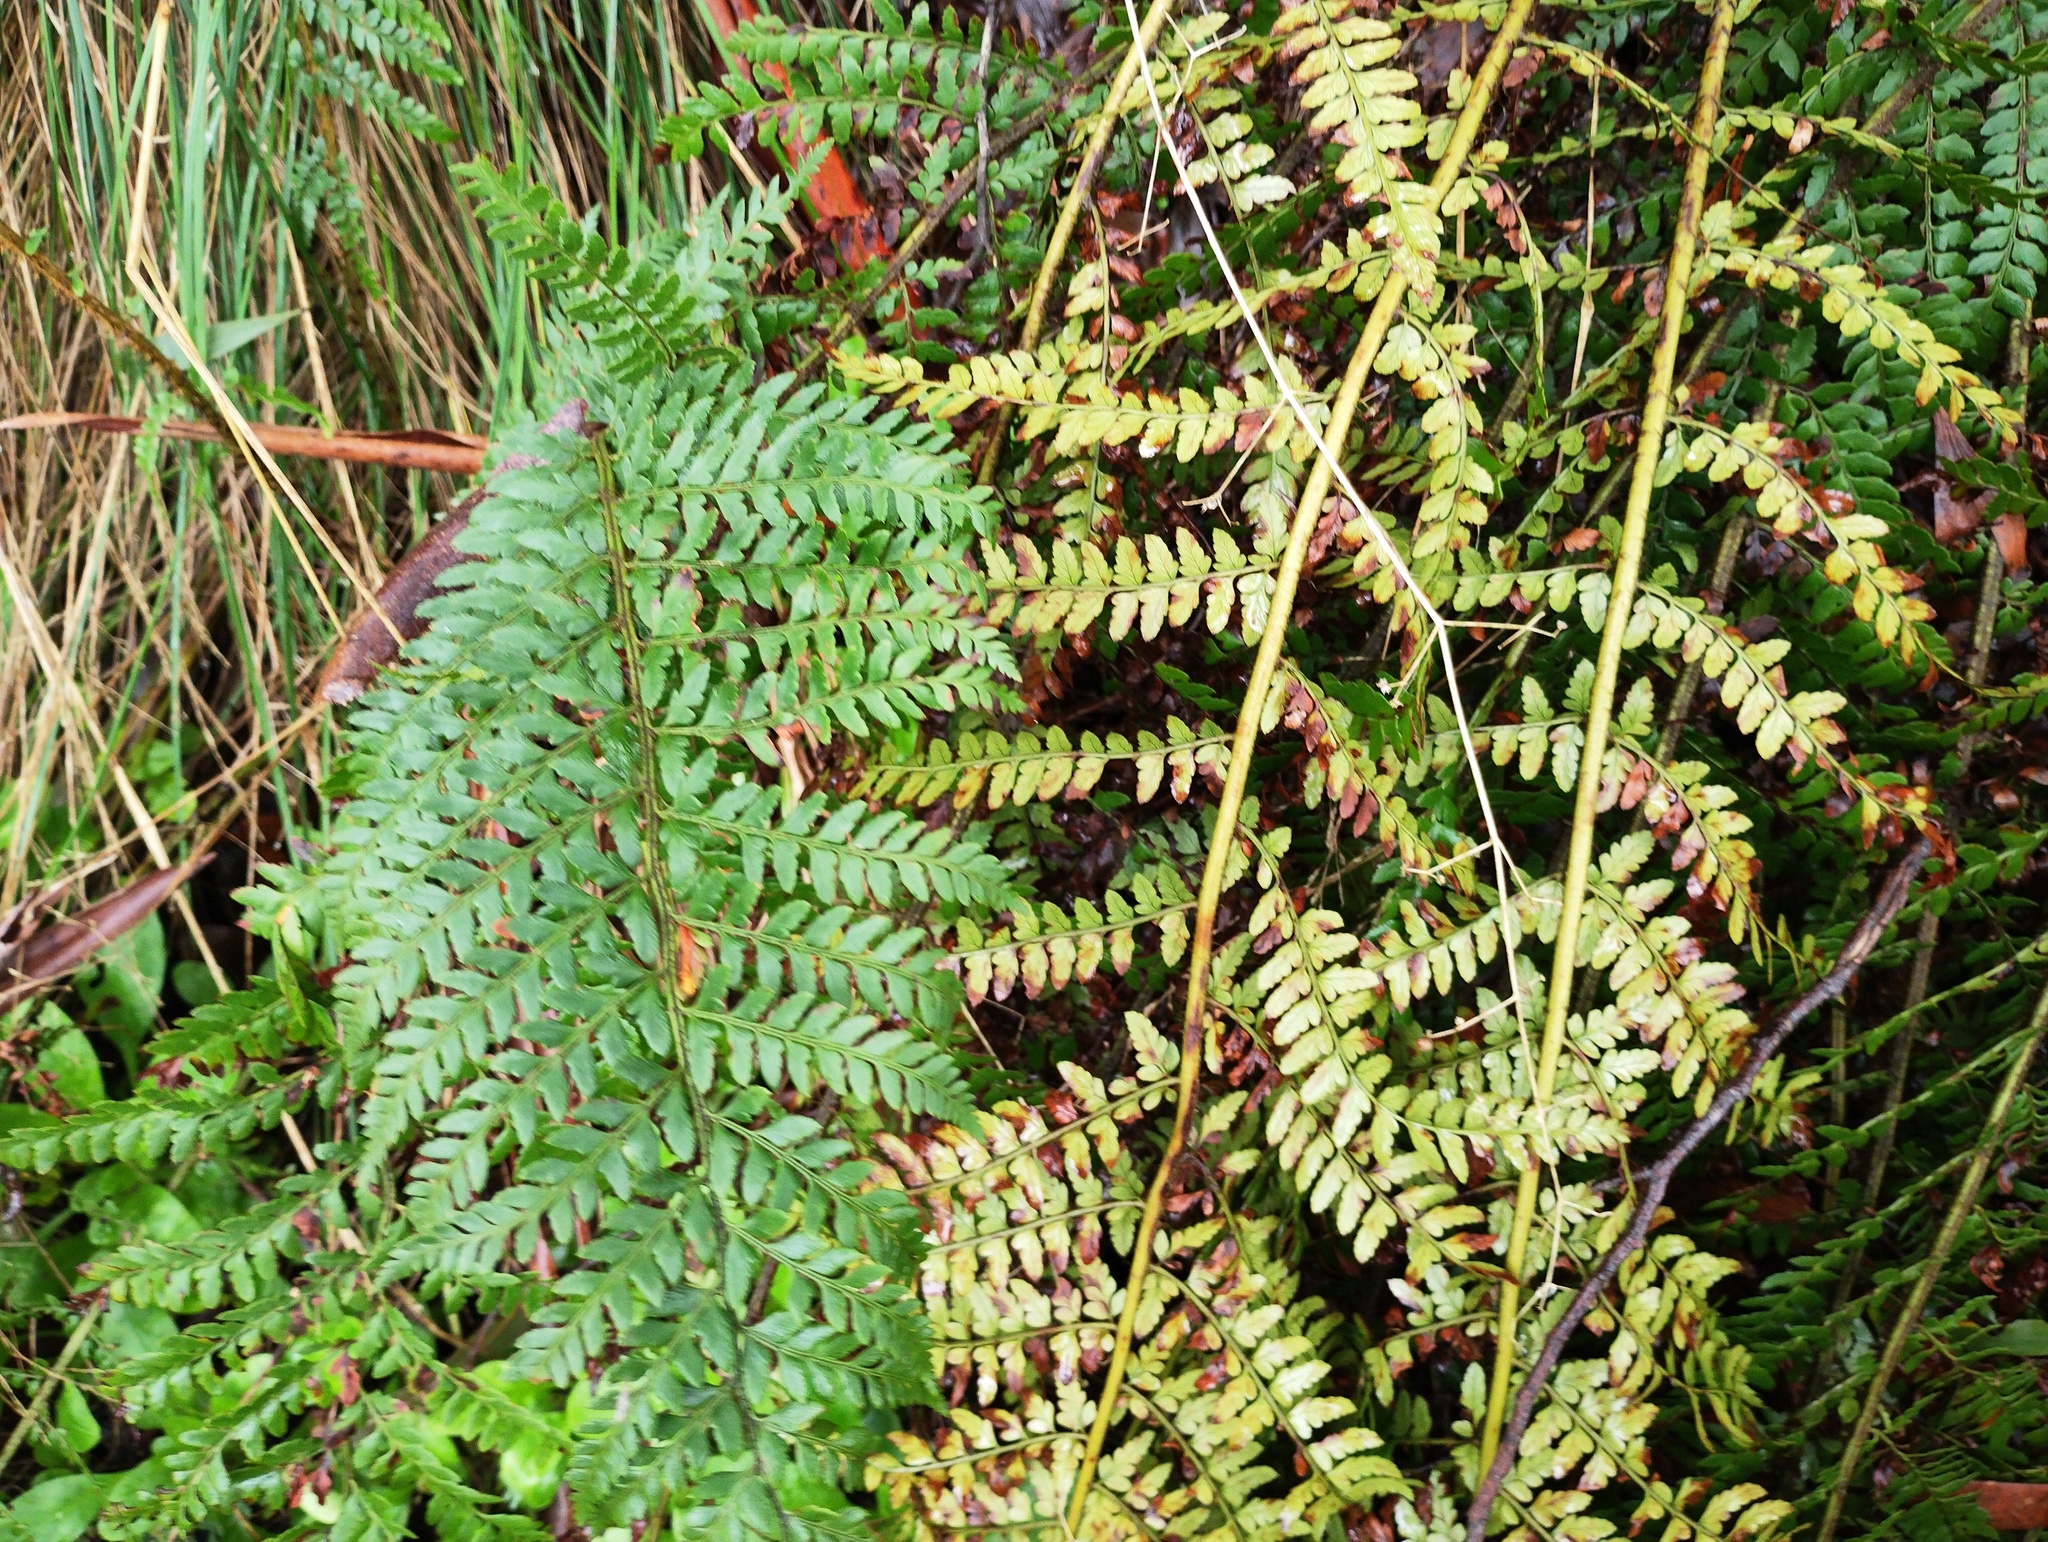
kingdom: Plantae
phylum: Tracheophyta
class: Polypodiopsida
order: Polypodiales
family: Dryopteridaceae
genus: Polystichum
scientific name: Polystichum proliferum
